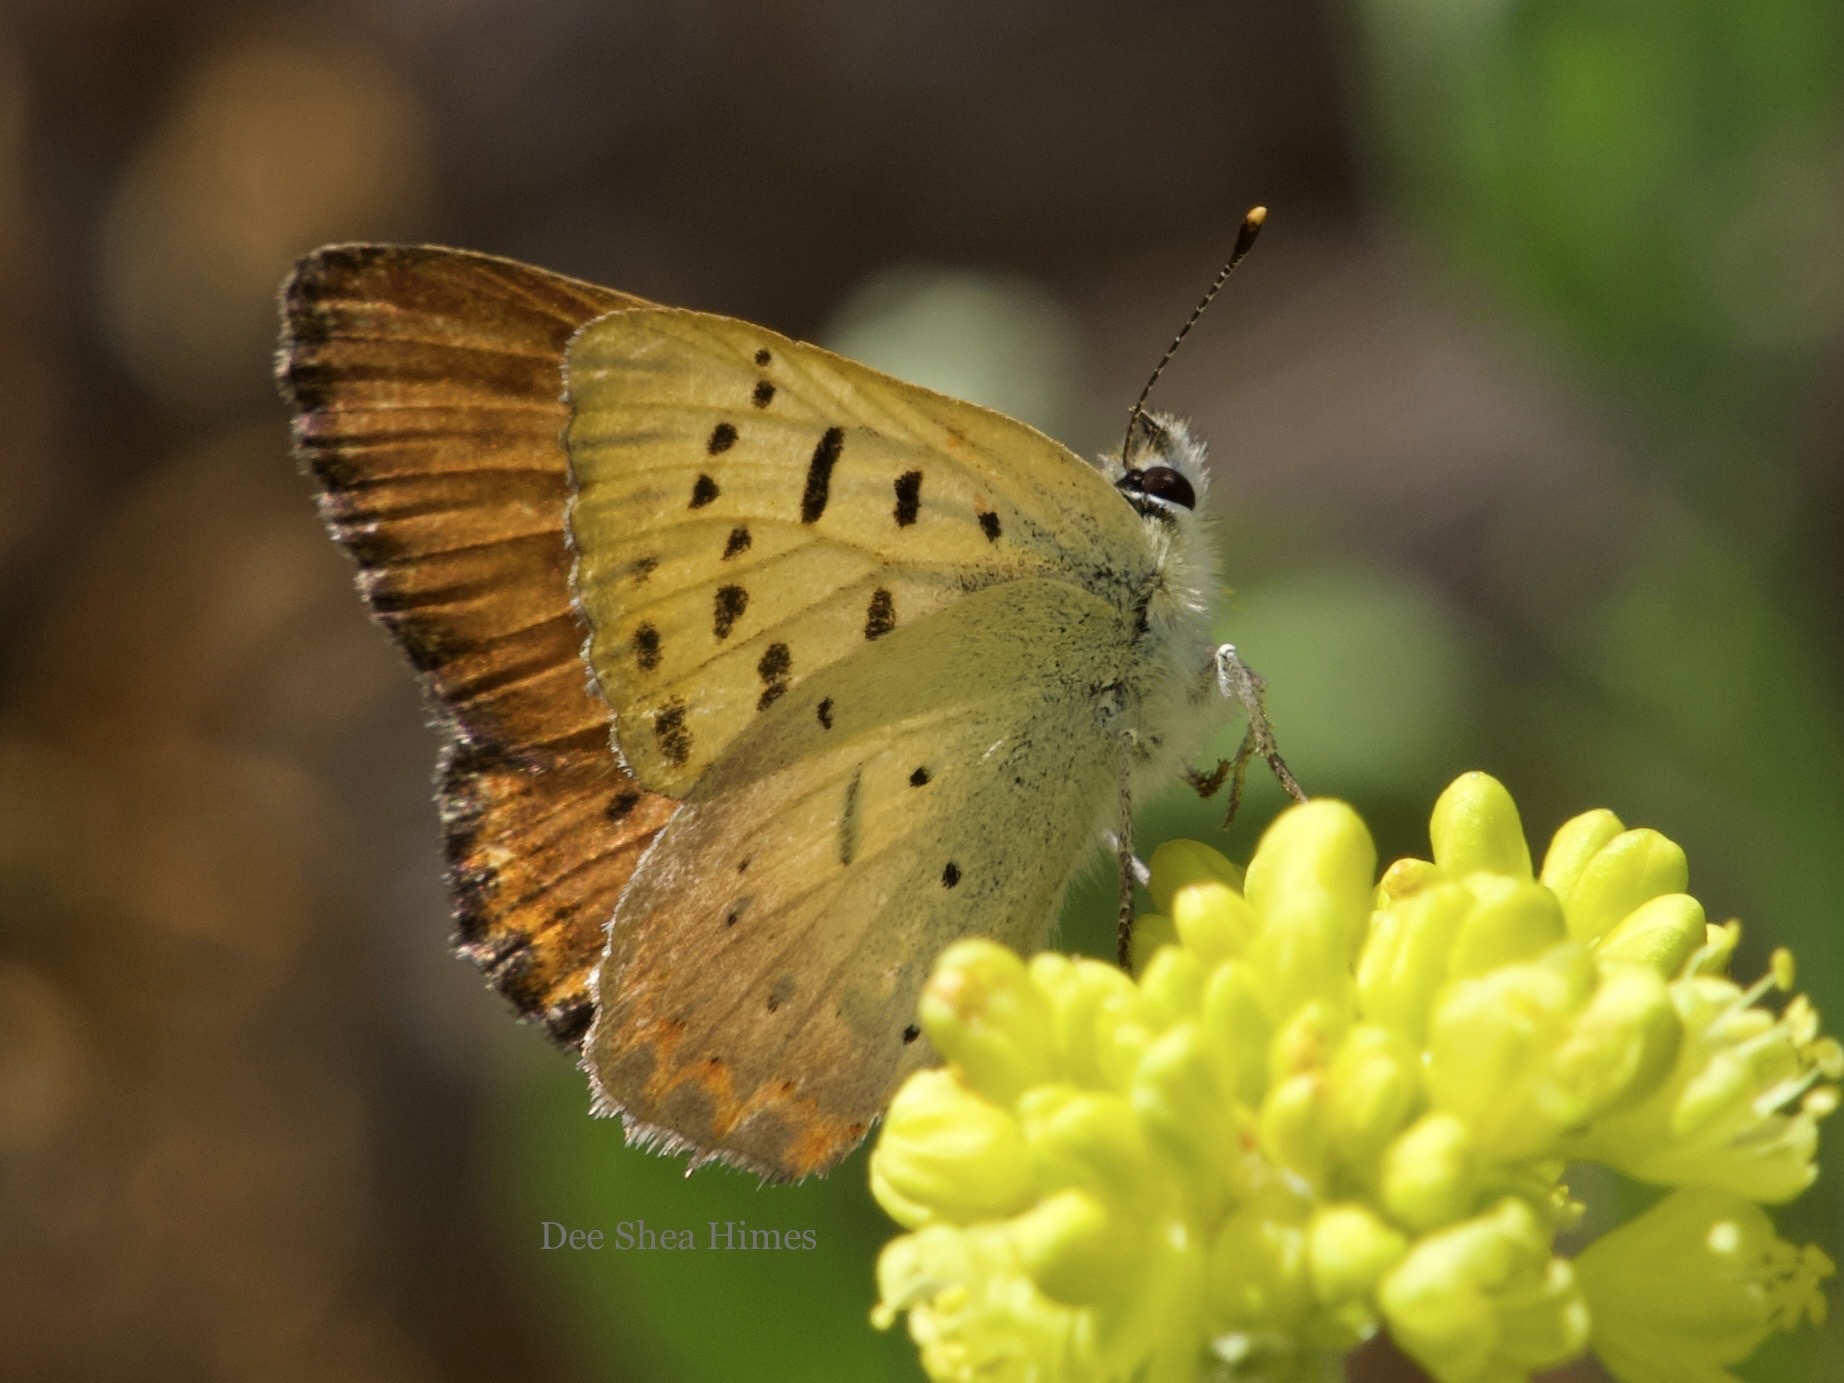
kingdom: Animalia
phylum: Arthropoda
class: Insecta
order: Lepidoptera
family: Lycaenidae
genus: Tharsalea
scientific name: Tharsalea helloides
